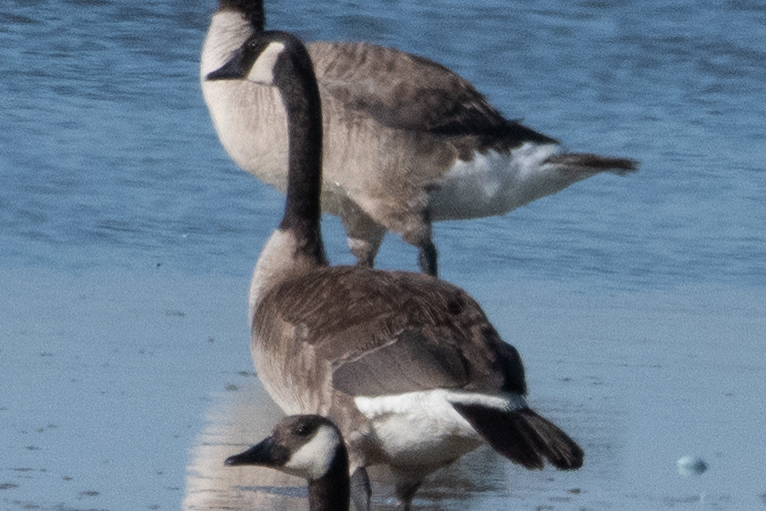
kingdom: Animalia
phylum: Chordata
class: Aves
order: Anseriformes
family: Anatidae
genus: Branta
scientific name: Branta canadensis
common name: Canada goose
